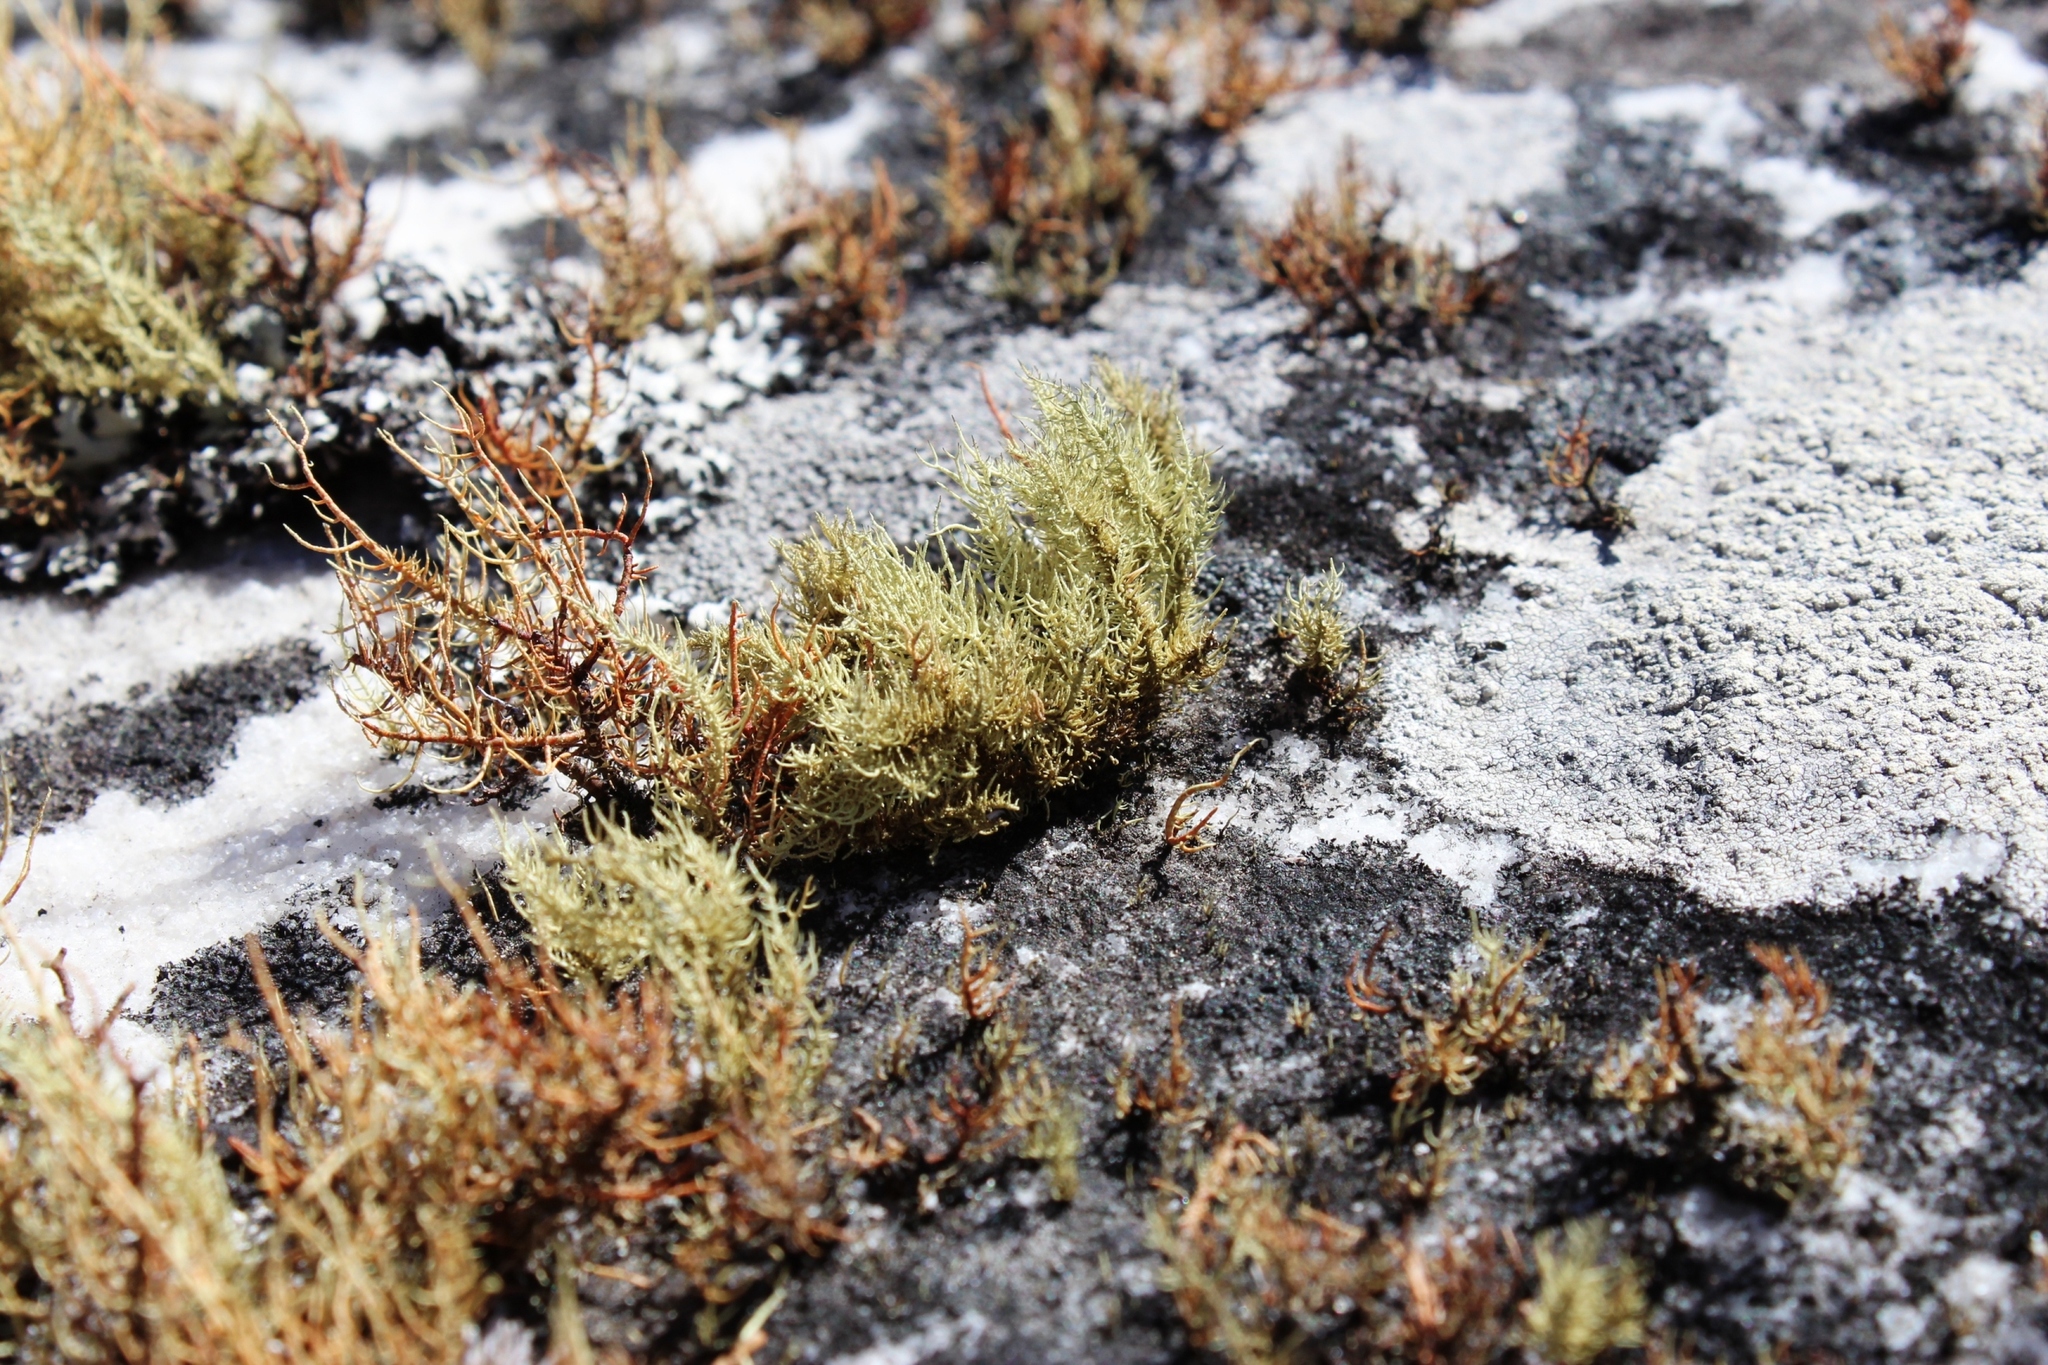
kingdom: Fungi
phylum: Ascomycota
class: Lecanoromycetes
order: Lecanorales
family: Parmeliaceae
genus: Usnea
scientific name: Usnea pulvinata
